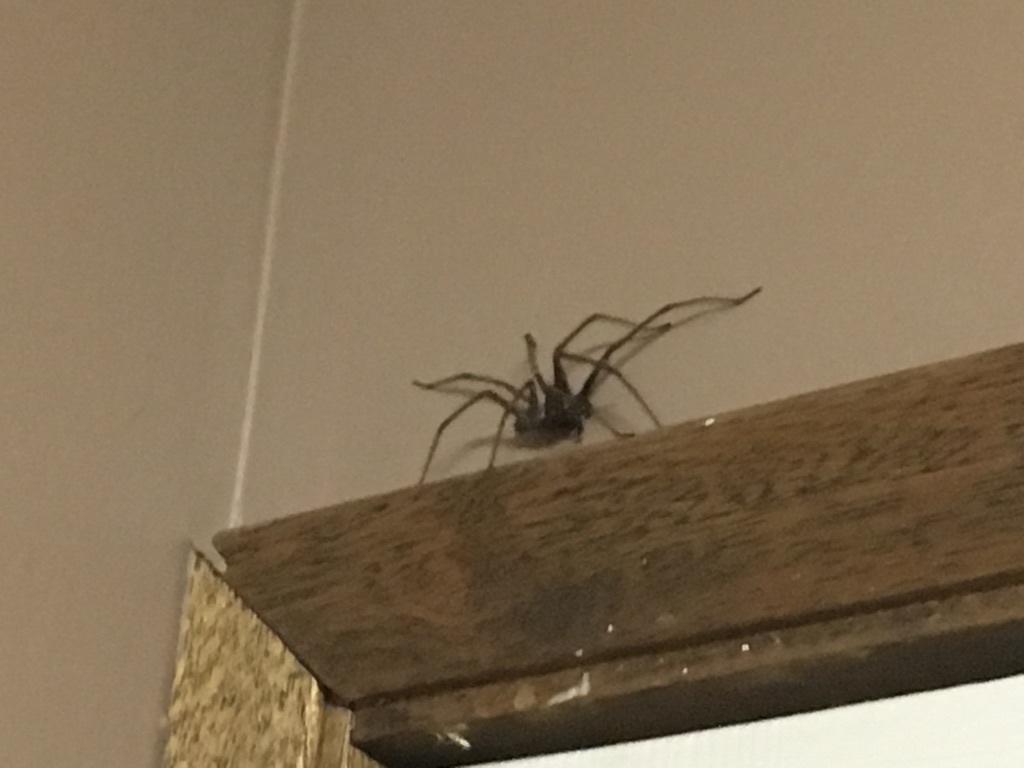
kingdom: Animalia
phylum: Arthropoda
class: Arachnida
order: Araneae
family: Agelenidae
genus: Eratigena
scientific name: Eratigena duellica
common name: Giant house spider
